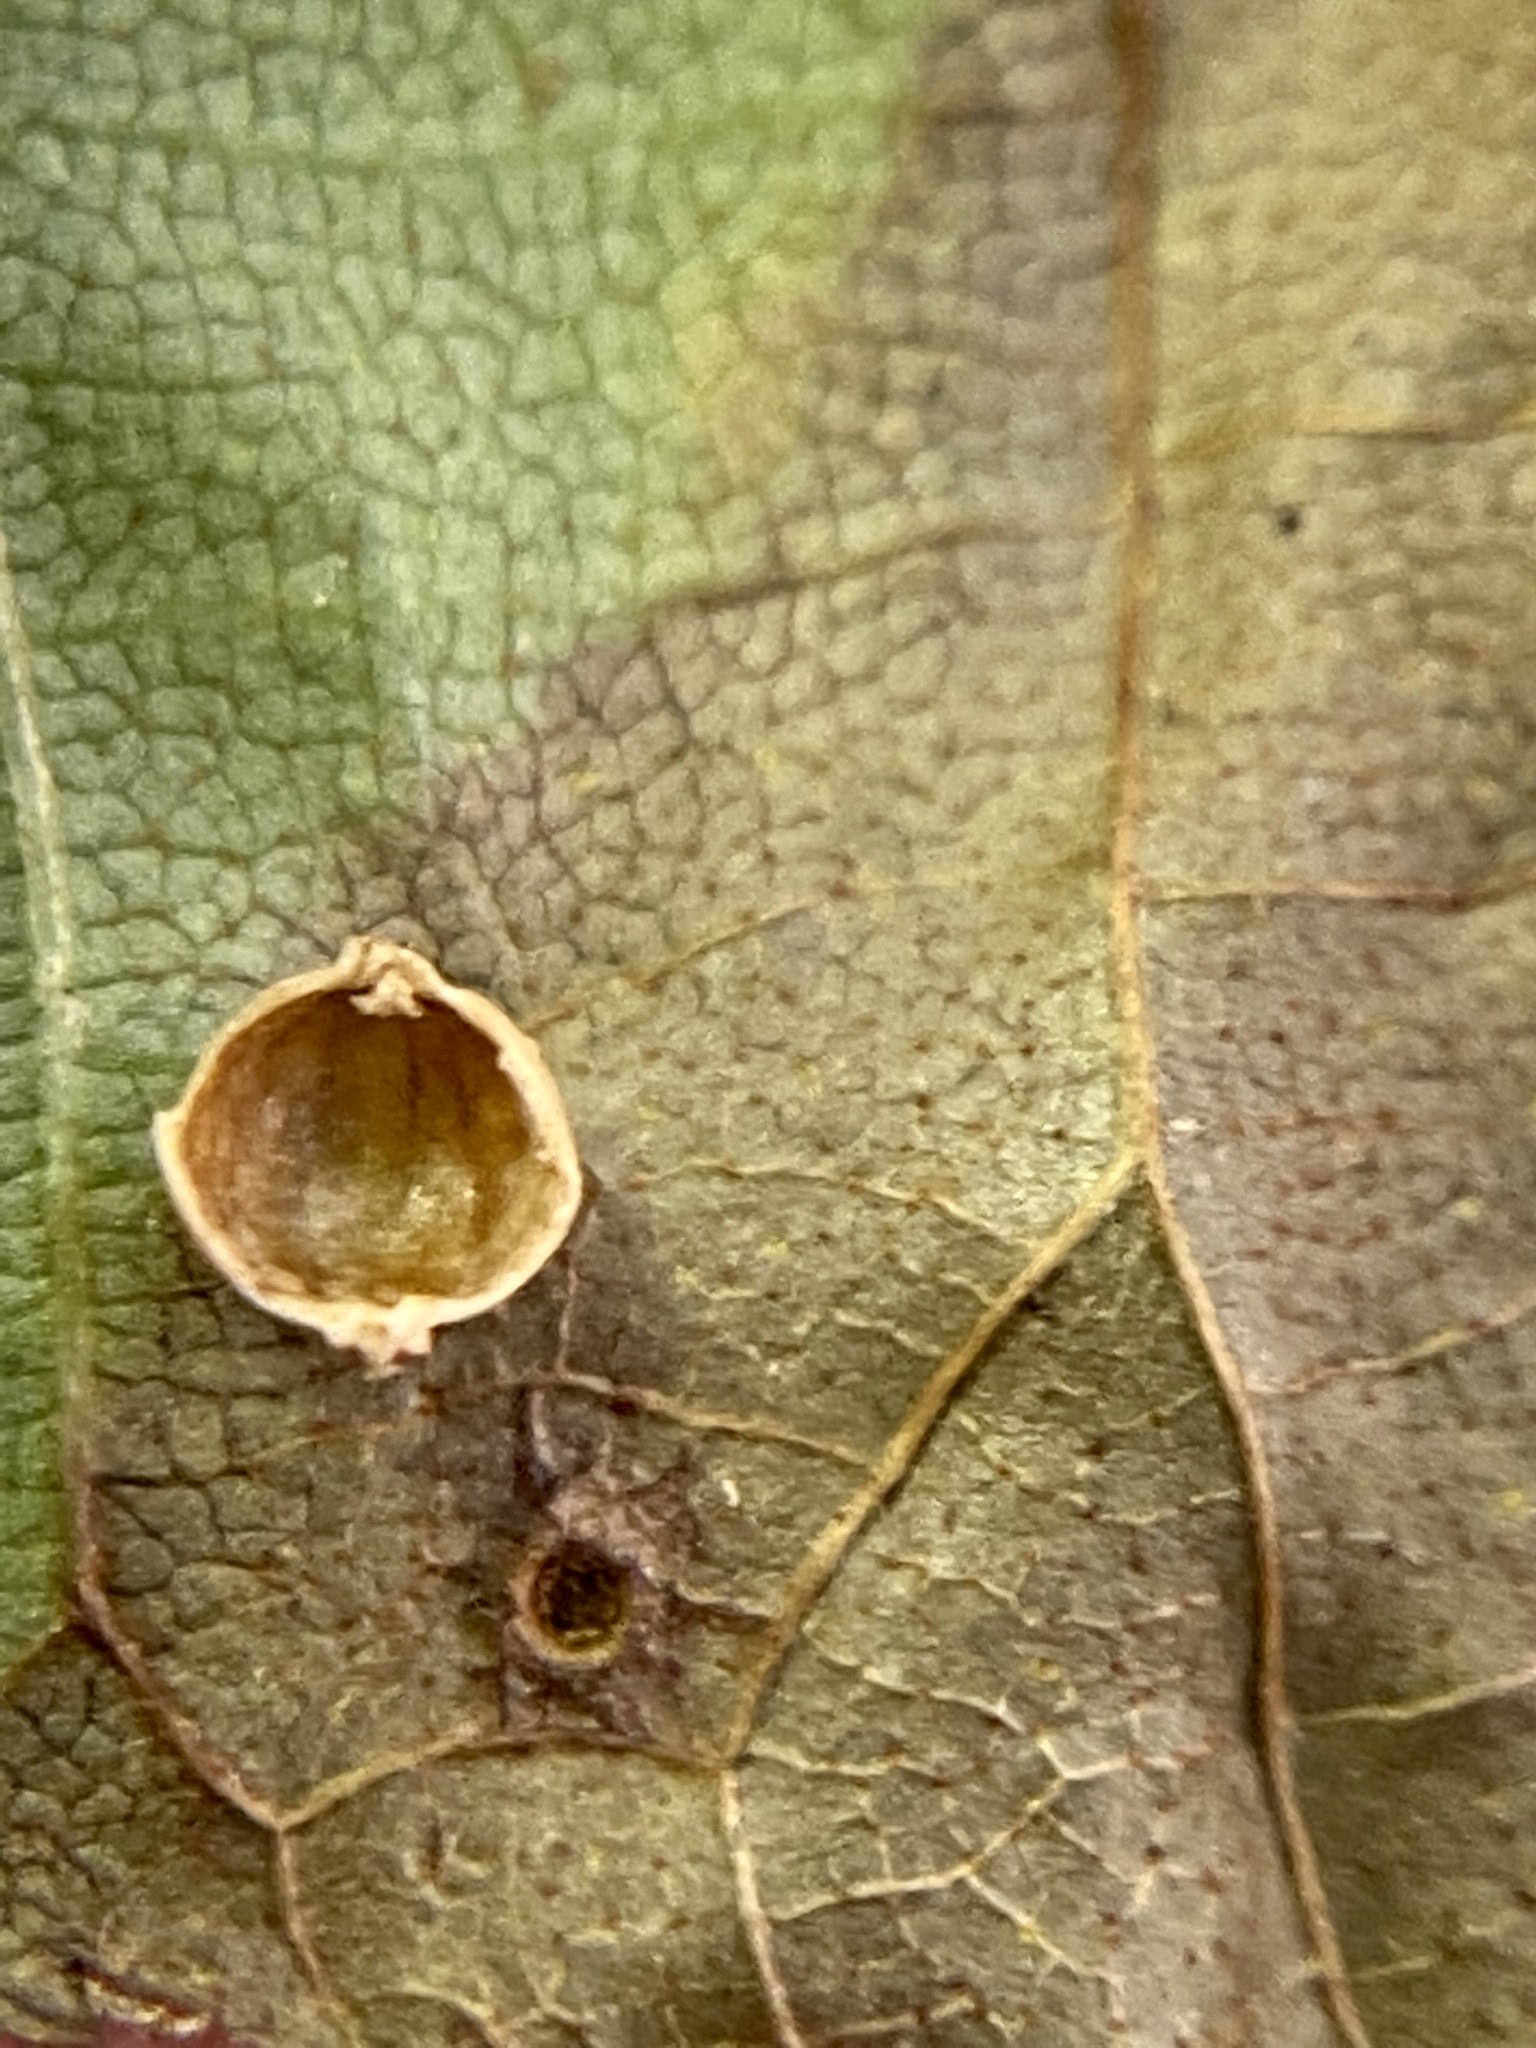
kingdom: Animalia
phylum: Arthropoda
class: Insecta
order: Diptera
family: Cecidomyiidae
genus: Caryomyia
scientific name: Caryomyia leviglobus
